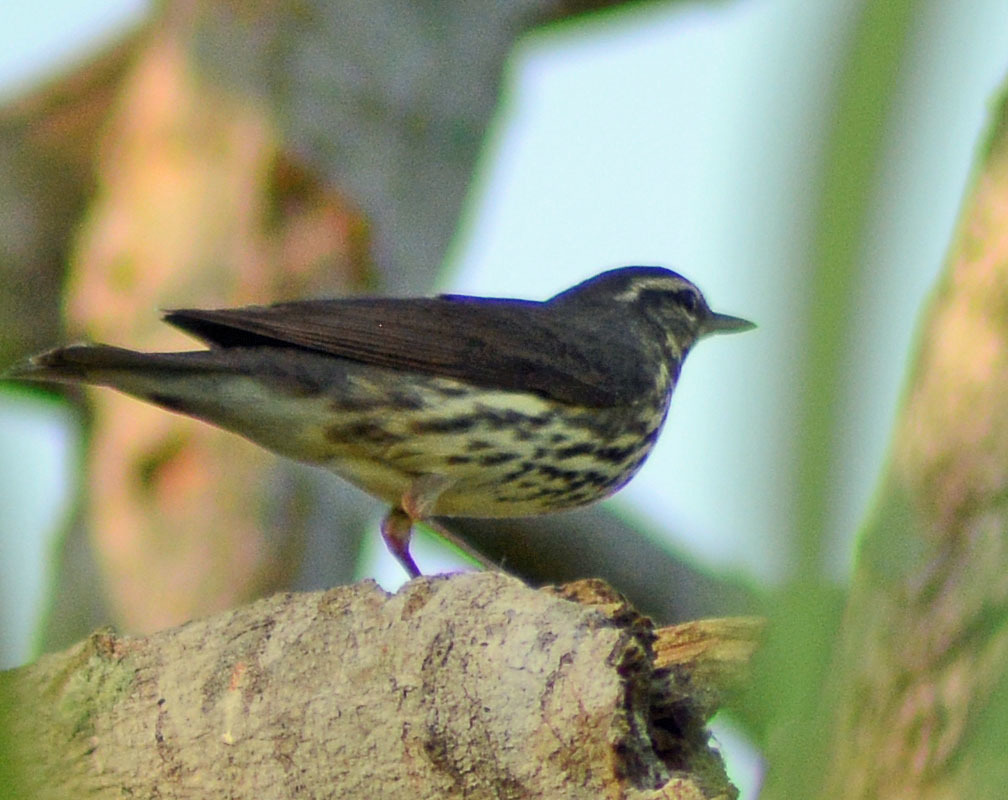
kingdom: Animalia
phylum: Chordata
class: Aves
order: Passeriformes
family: Parulidae
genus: Parkesia
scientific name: Parkesia noveboracensis
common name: Northern waterthrush
